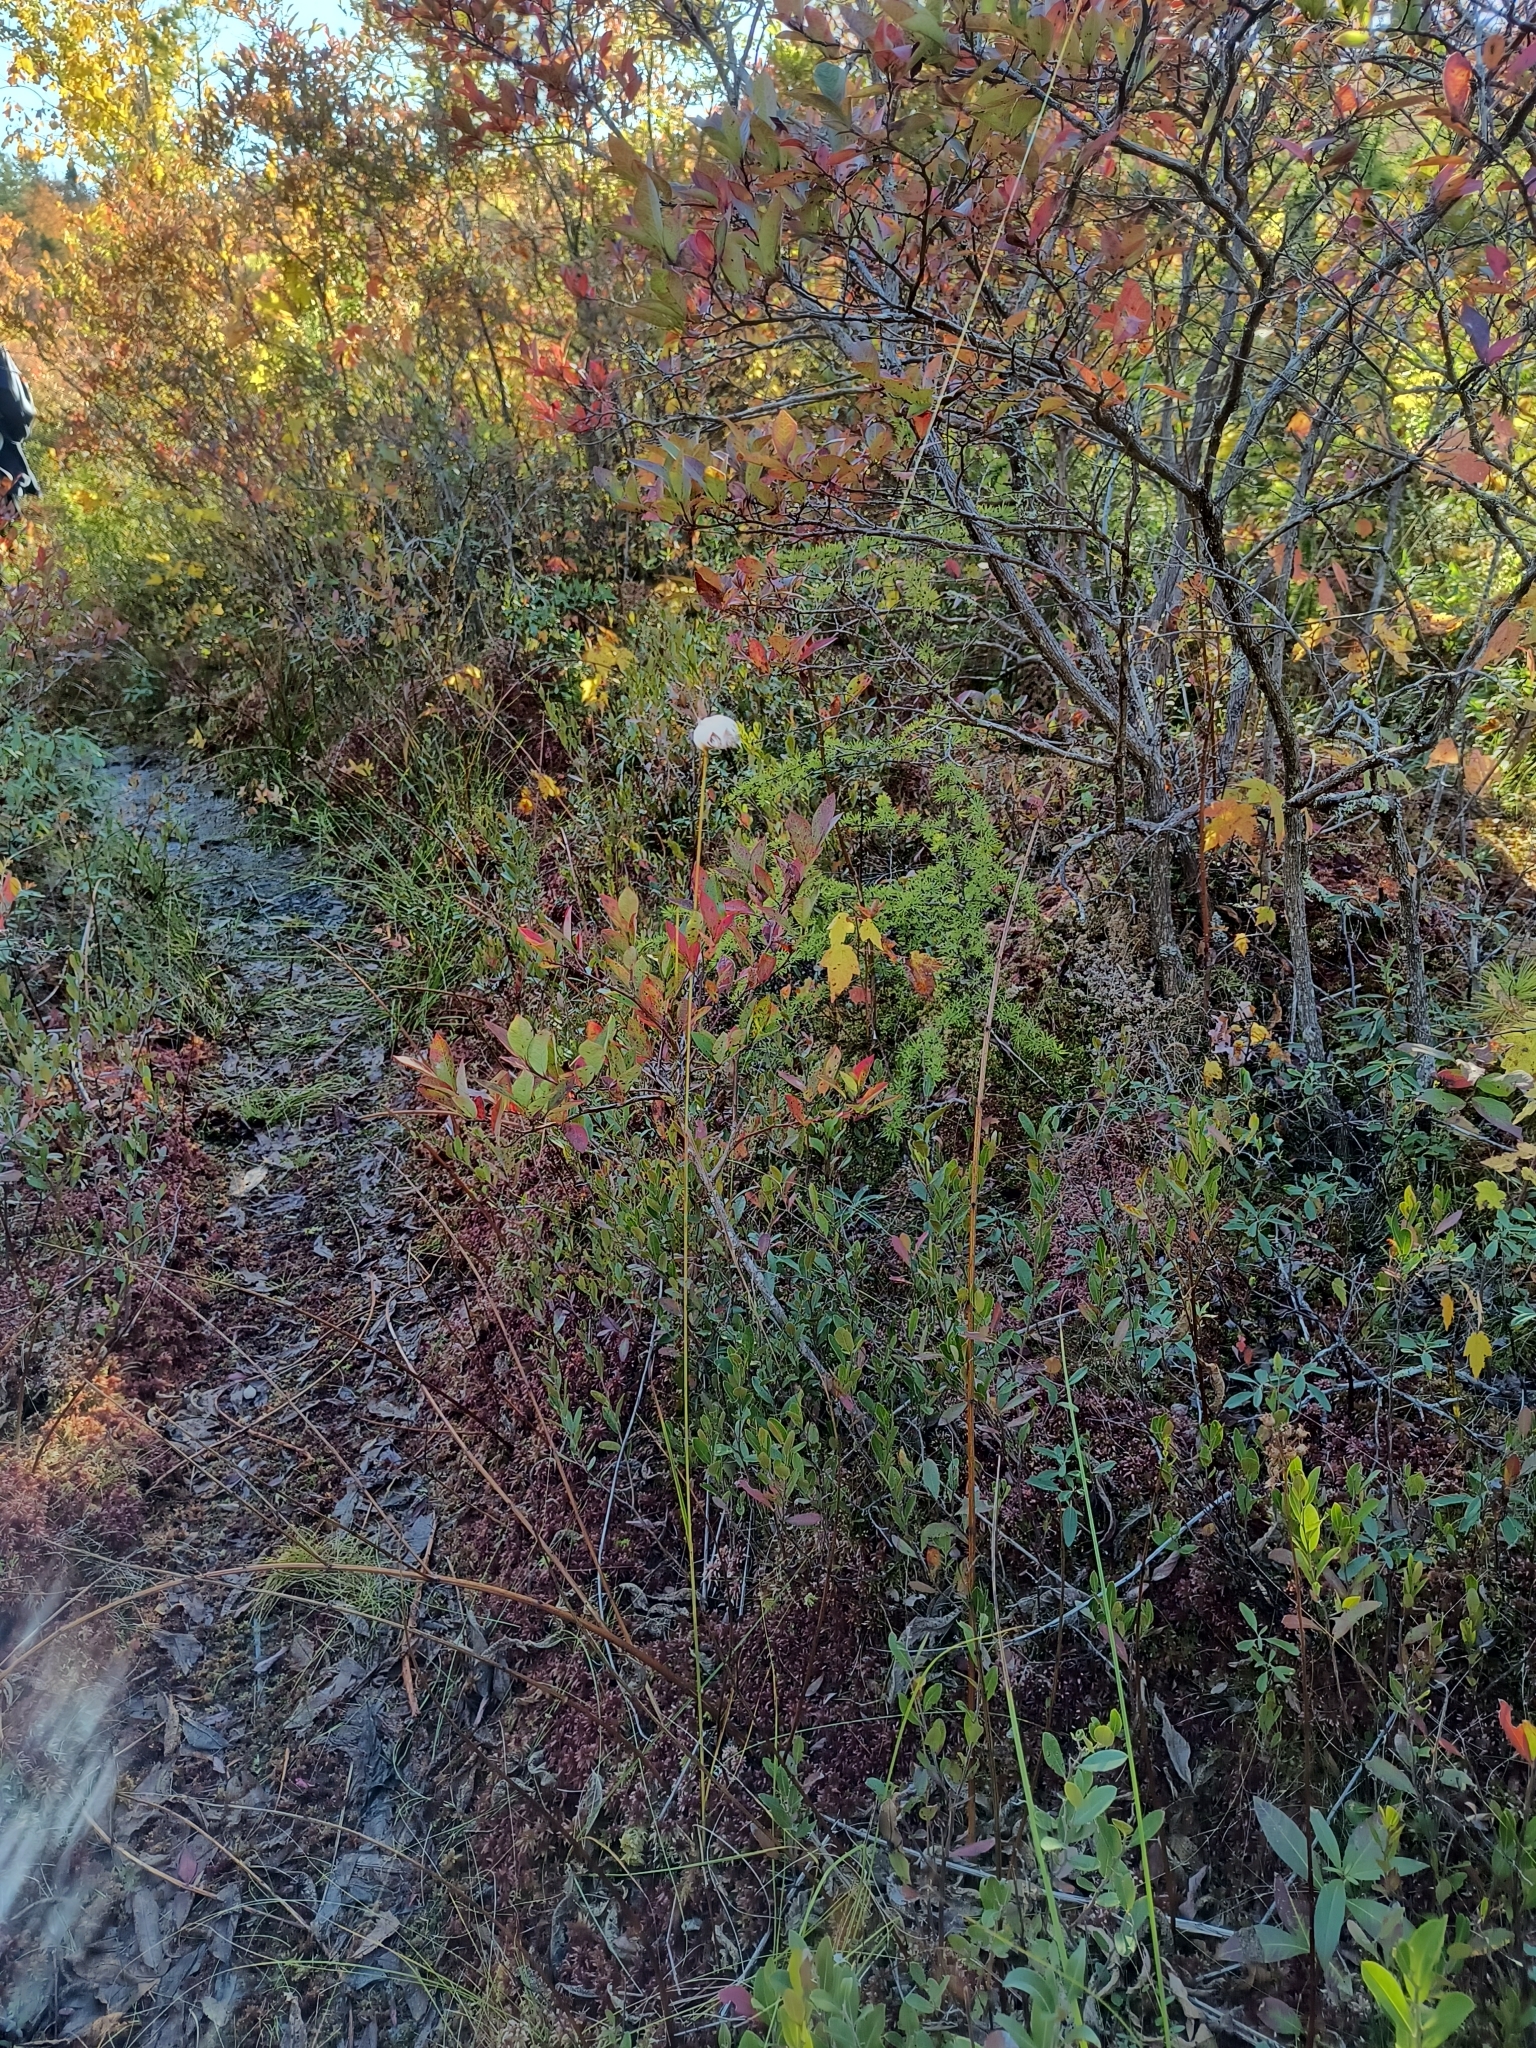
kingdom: Plantae
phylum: Tracheophyta
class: Liliopsida
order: Poales
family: Cyperaceae
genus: Eriophorum
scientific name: Eriophorum virginicum
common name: Tawny cottongrass
